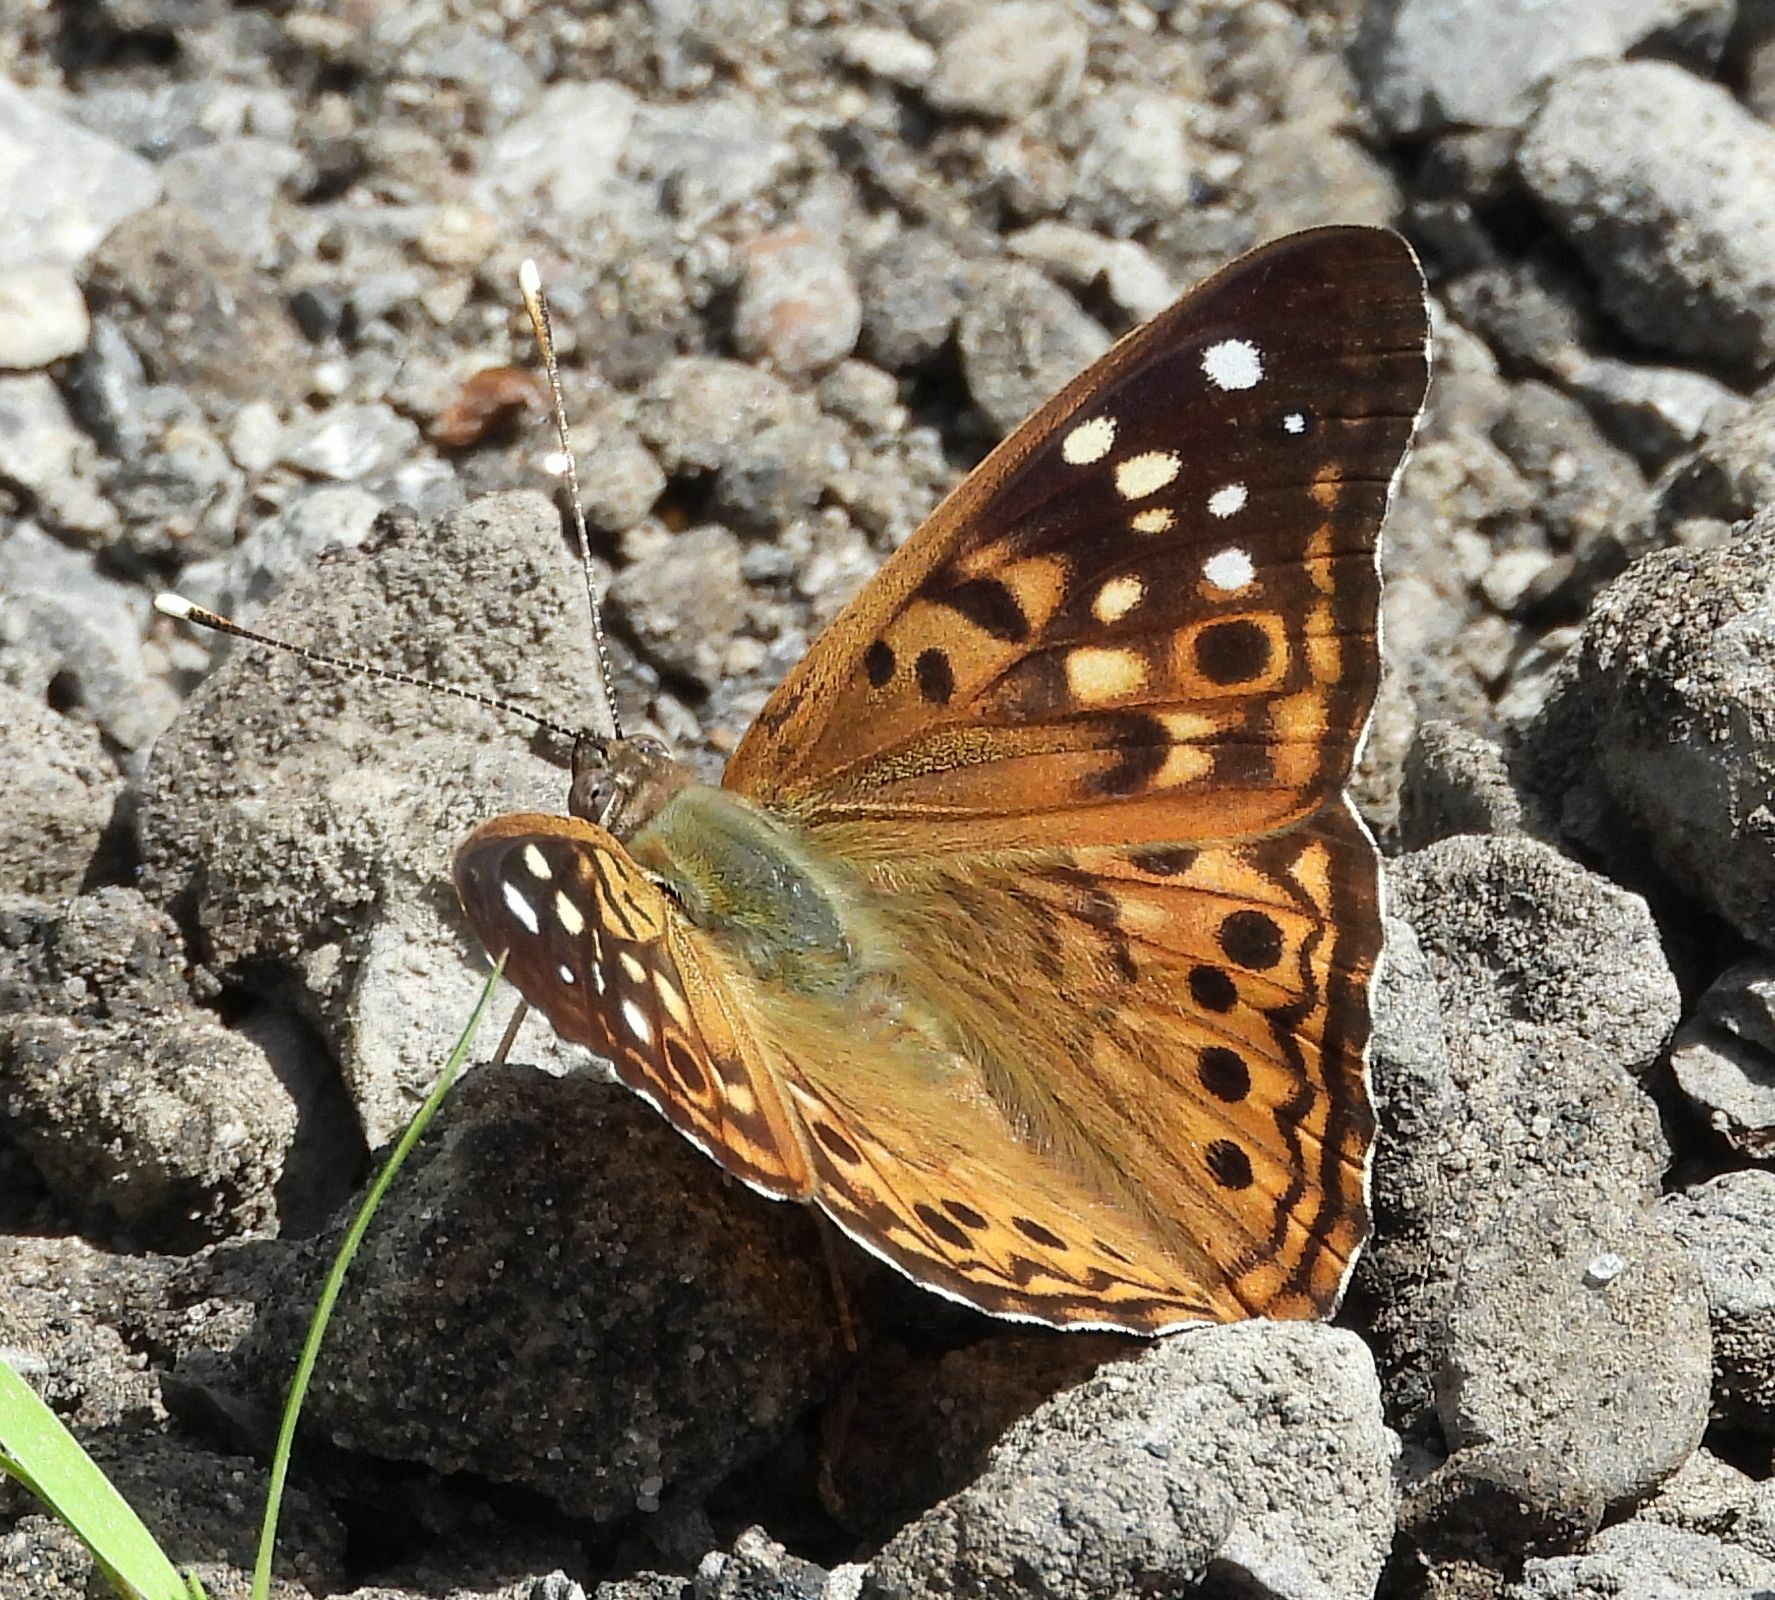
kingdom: Animalia
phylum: Arthropoda
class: Insecta
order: Lepidoptera
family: Nymphalidae
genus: Asterocampa
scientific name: Asterocampa celtis
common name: Hackberry emperor
